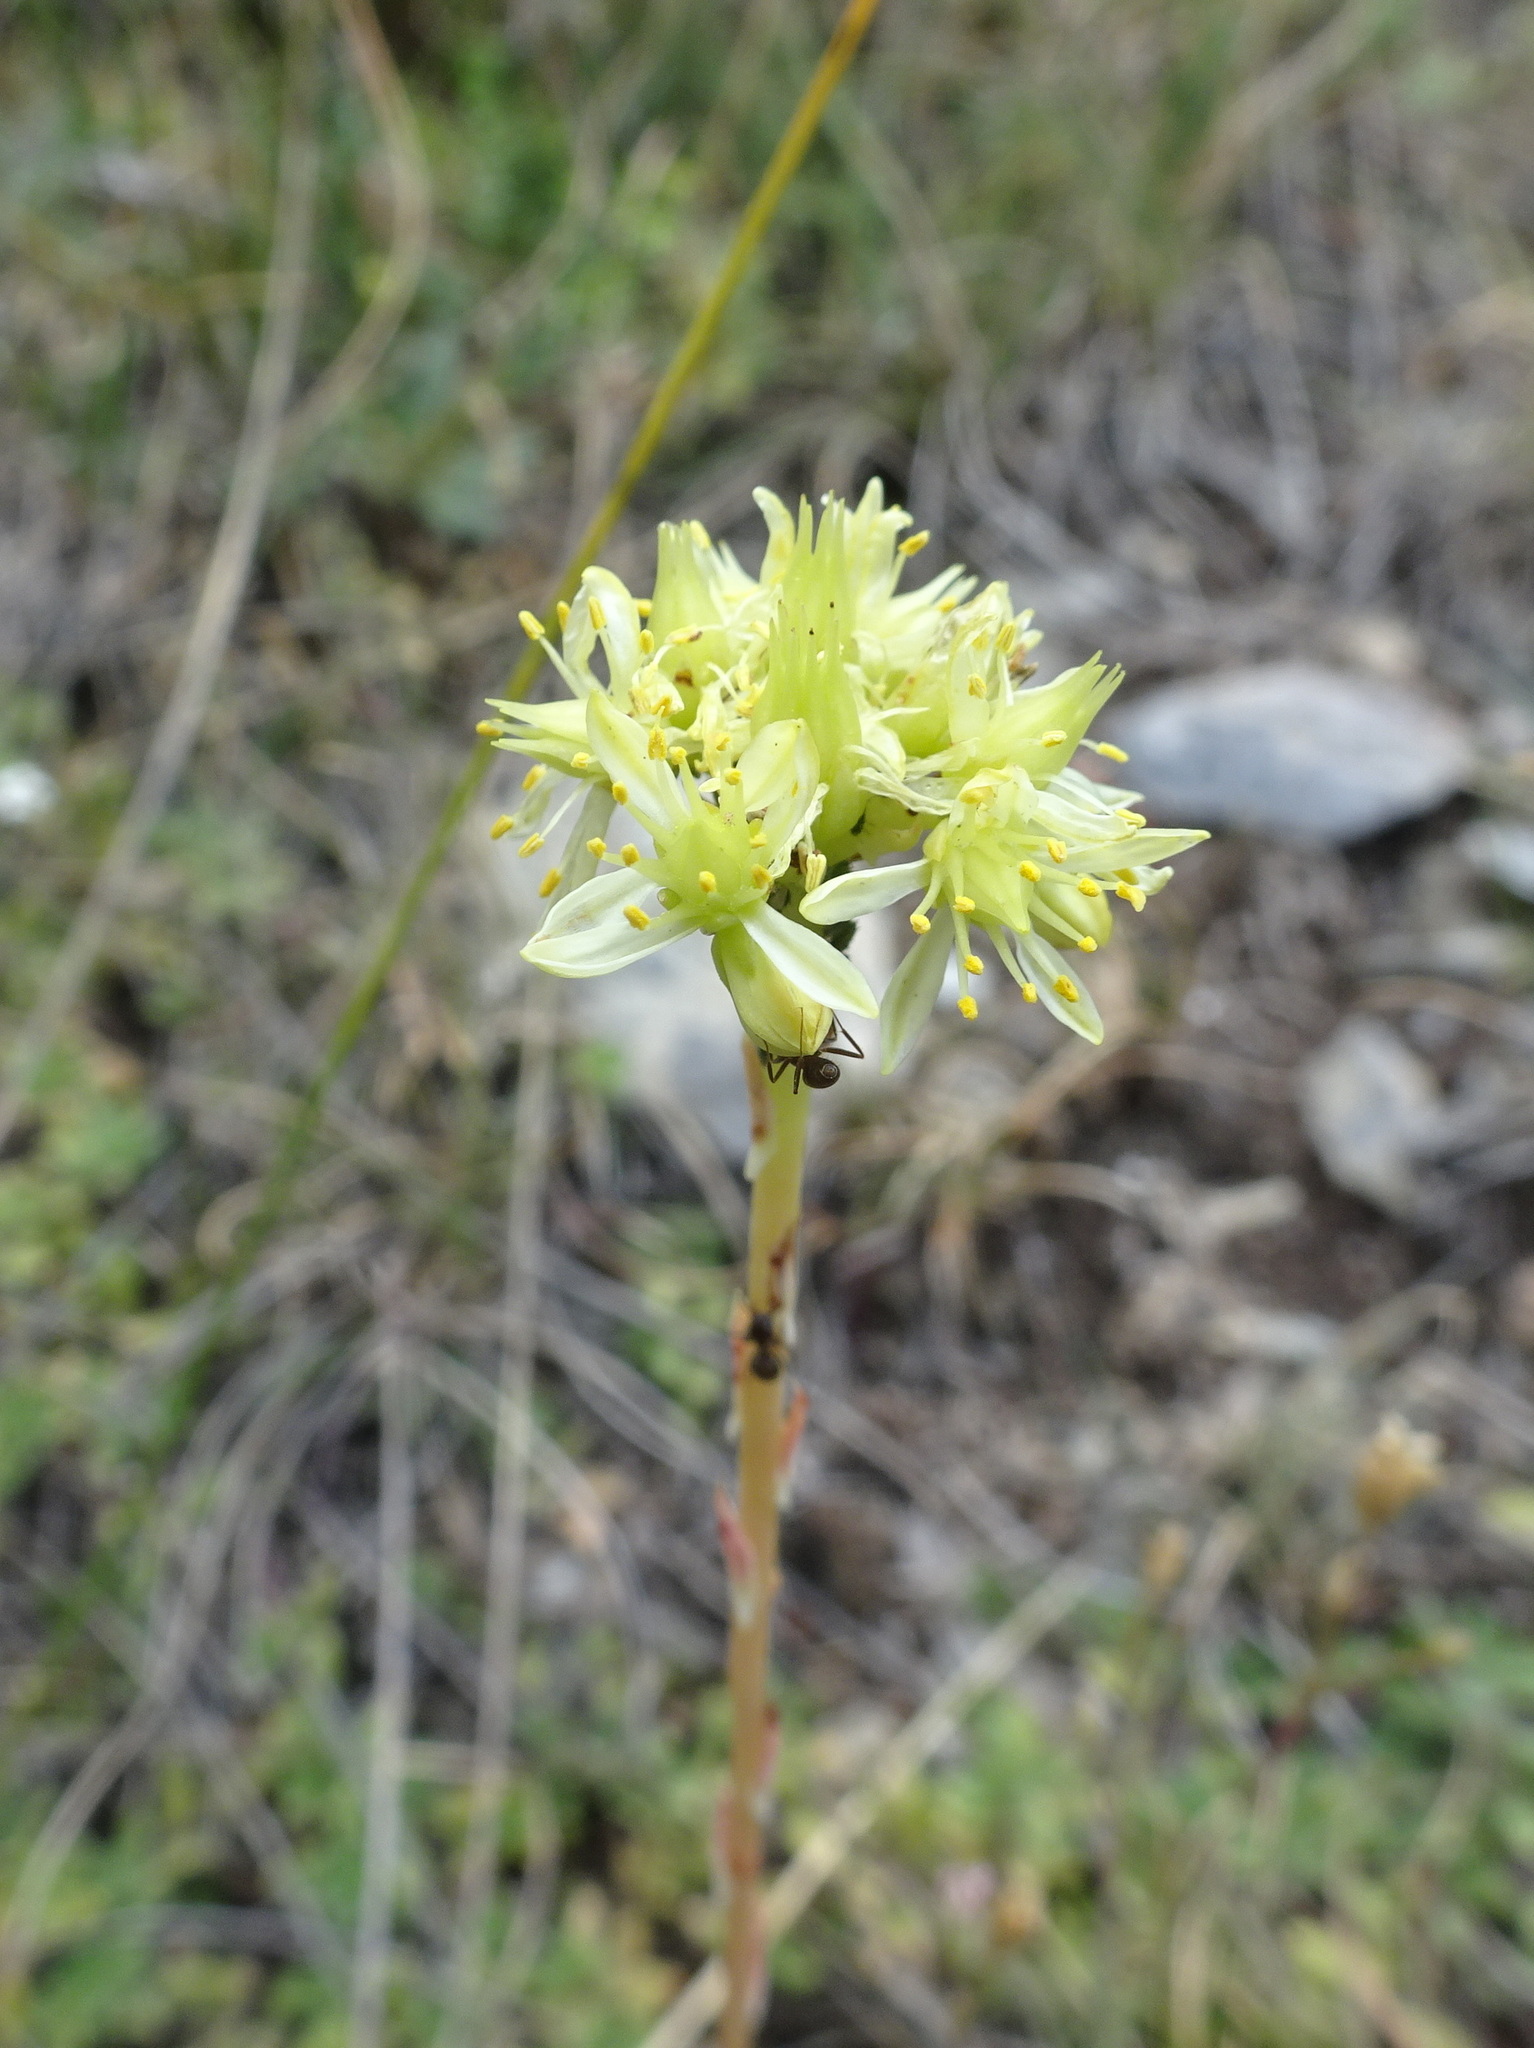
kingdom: Plantae
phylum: Tracheophyta
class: Magnoliopsida
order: Saxifragales
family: Crassulaceae
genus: Petrosedum
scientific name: Petrosedum sediforme
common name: Pale stonecrop
